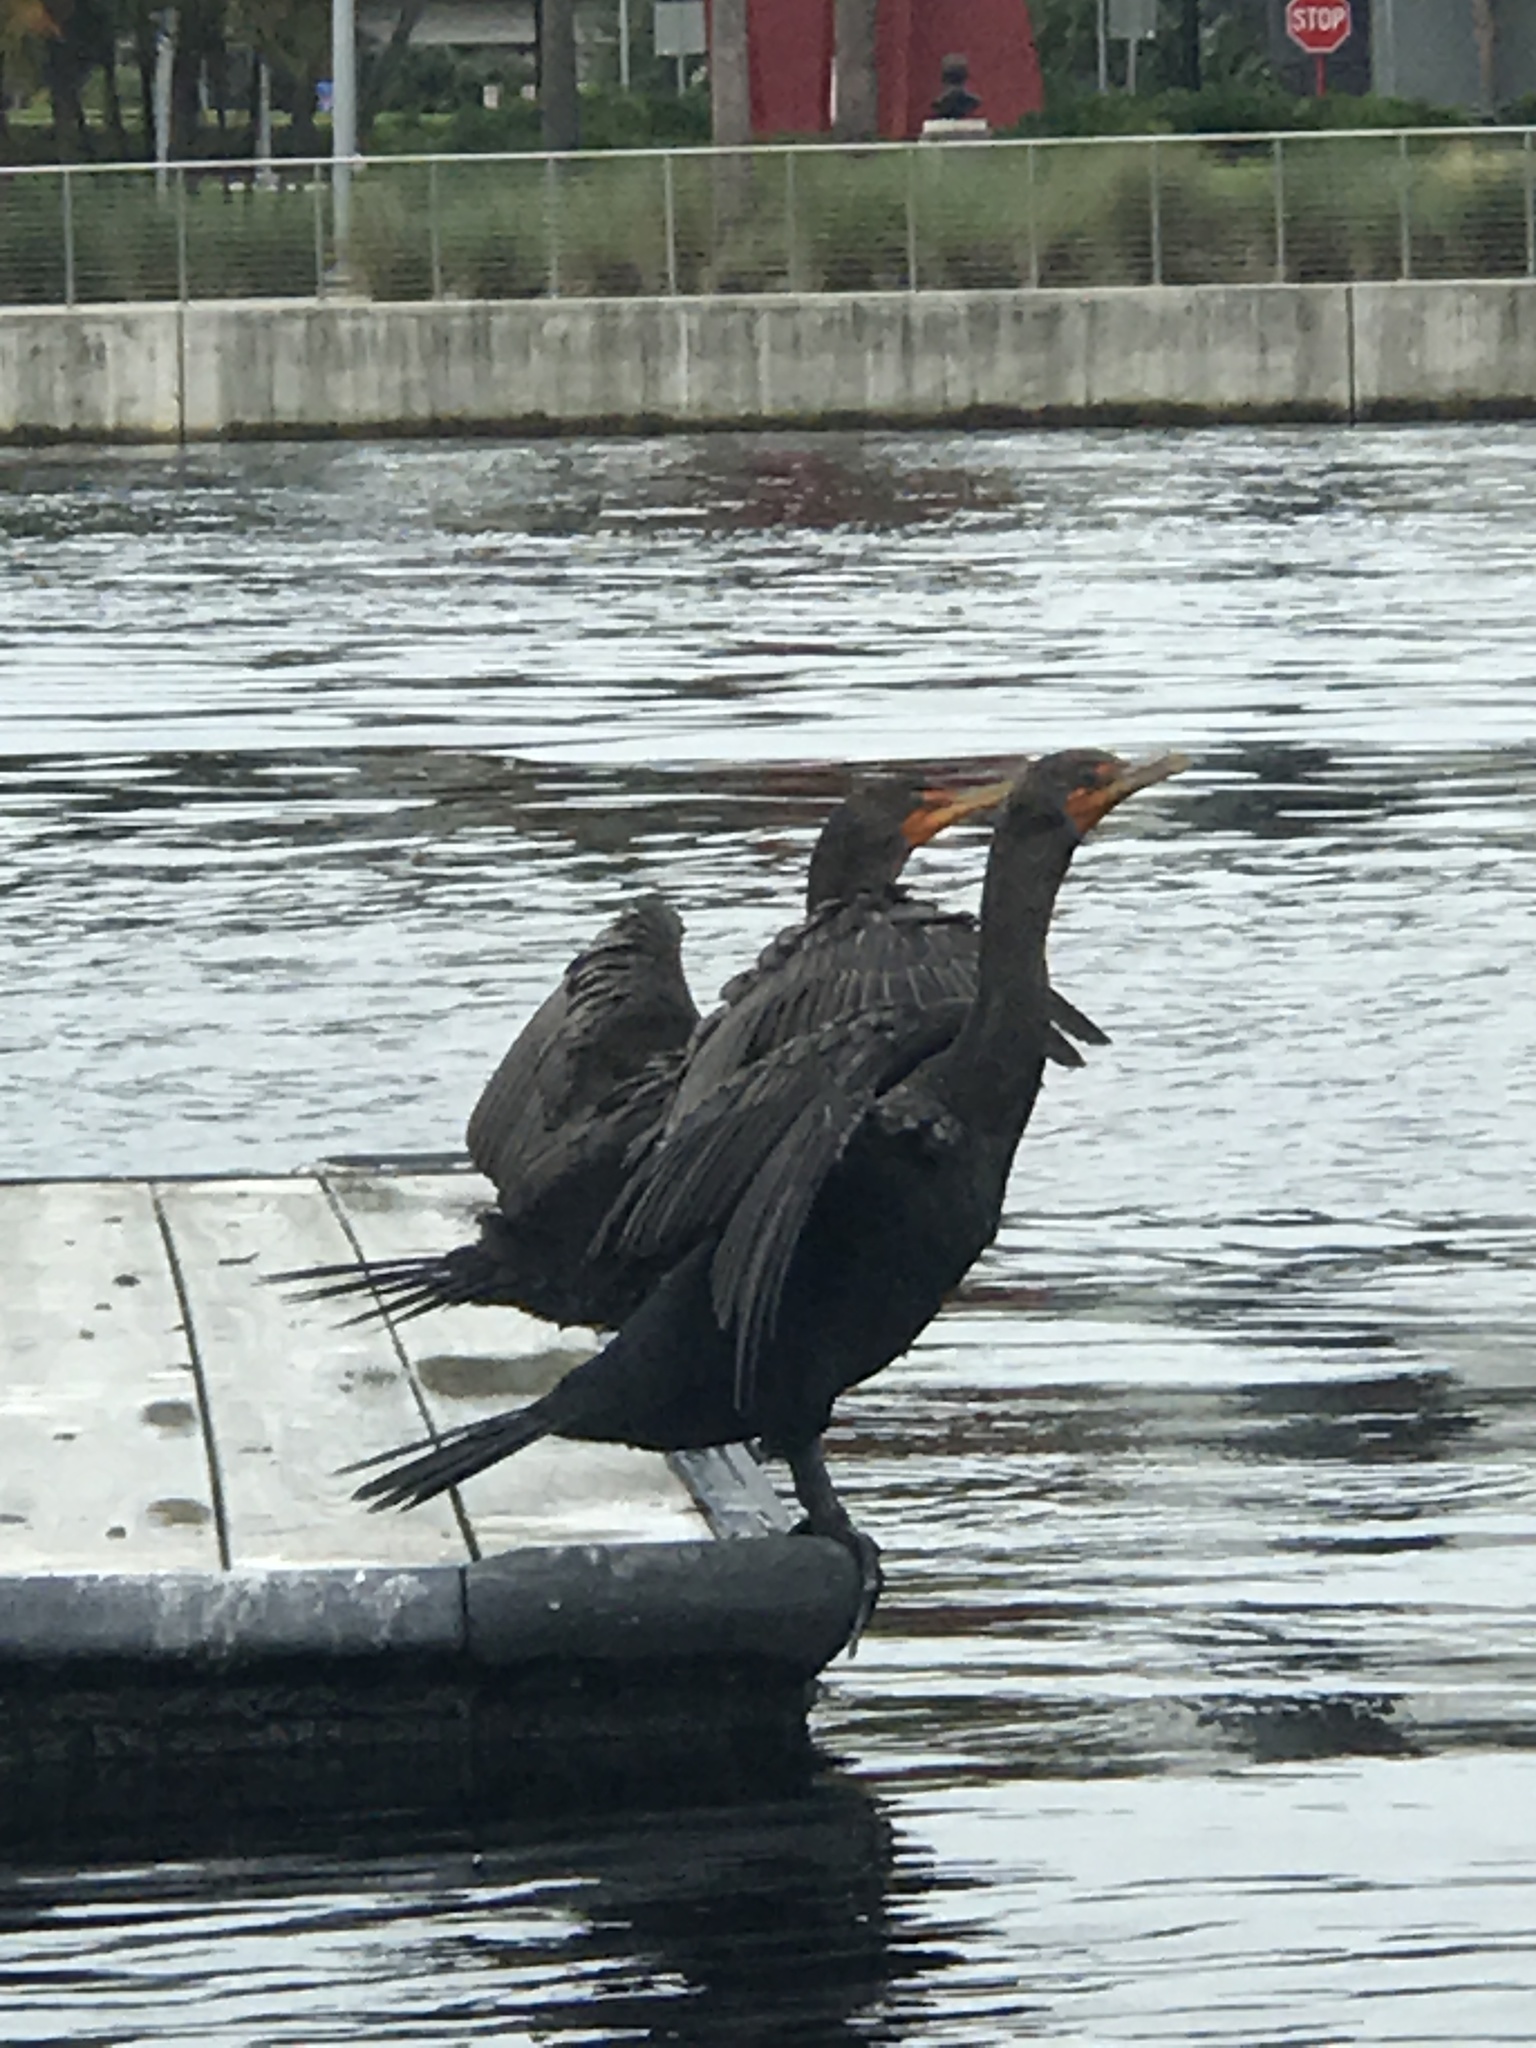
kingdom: Animalia
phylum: Chordata
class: Aves
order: Suliformes
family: Phalacrocoracidae
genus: Phalacrocorax
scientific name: Phalacrocorax auritus
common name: Double-crested cormorant
